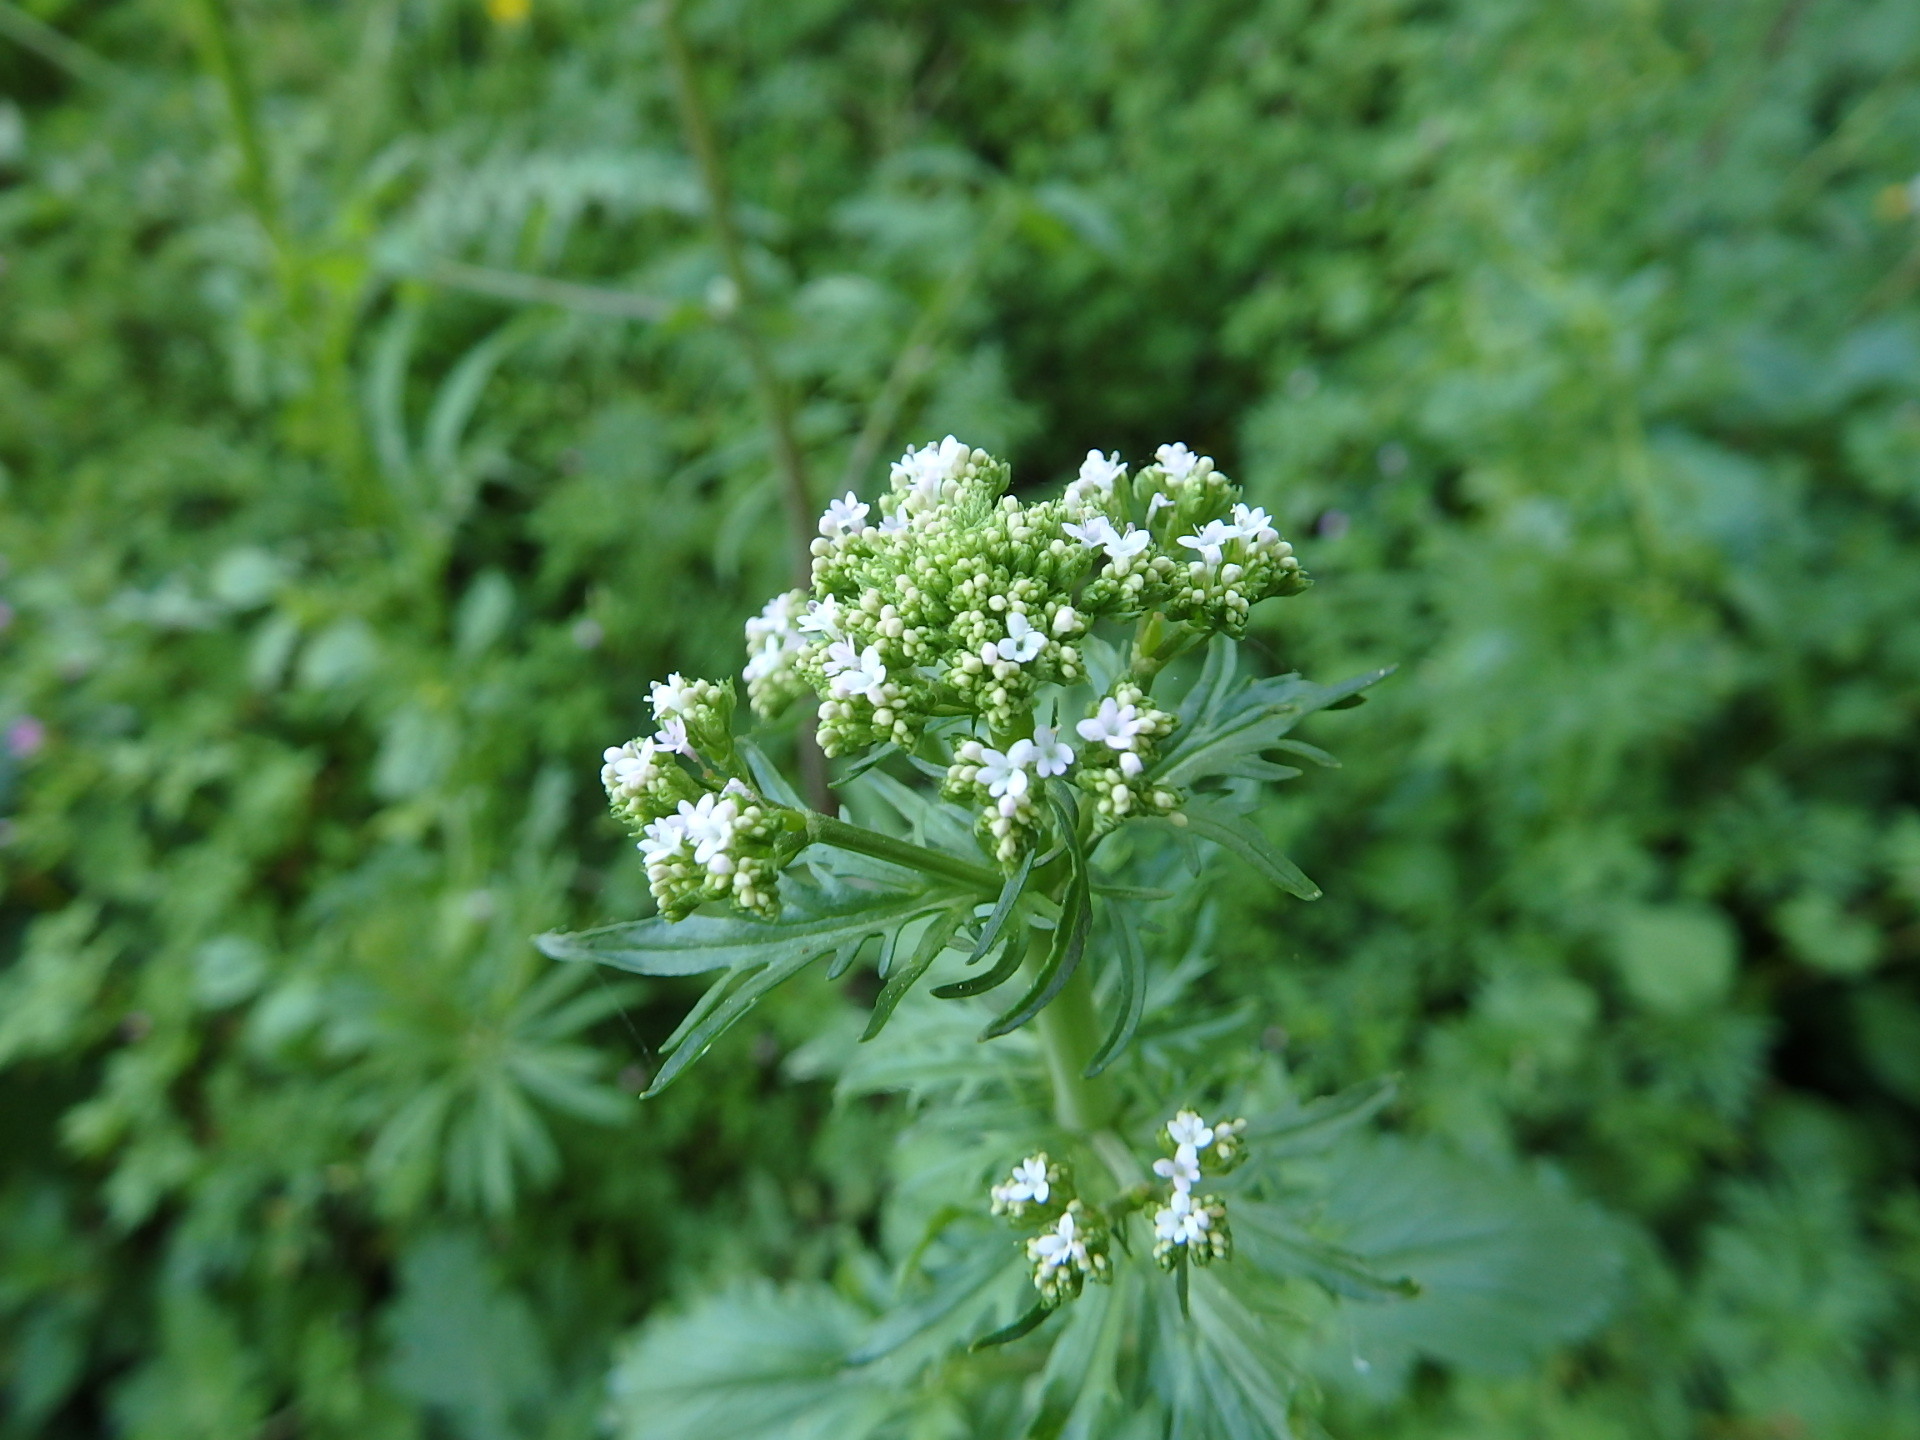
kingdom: Plantae
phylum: Tracheophyta
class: Magnoliopsida
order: Dipsacales
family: Caprifoliaceae
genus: Centranthus
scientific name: Centranthus calcitrapae
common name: Annual valerian
